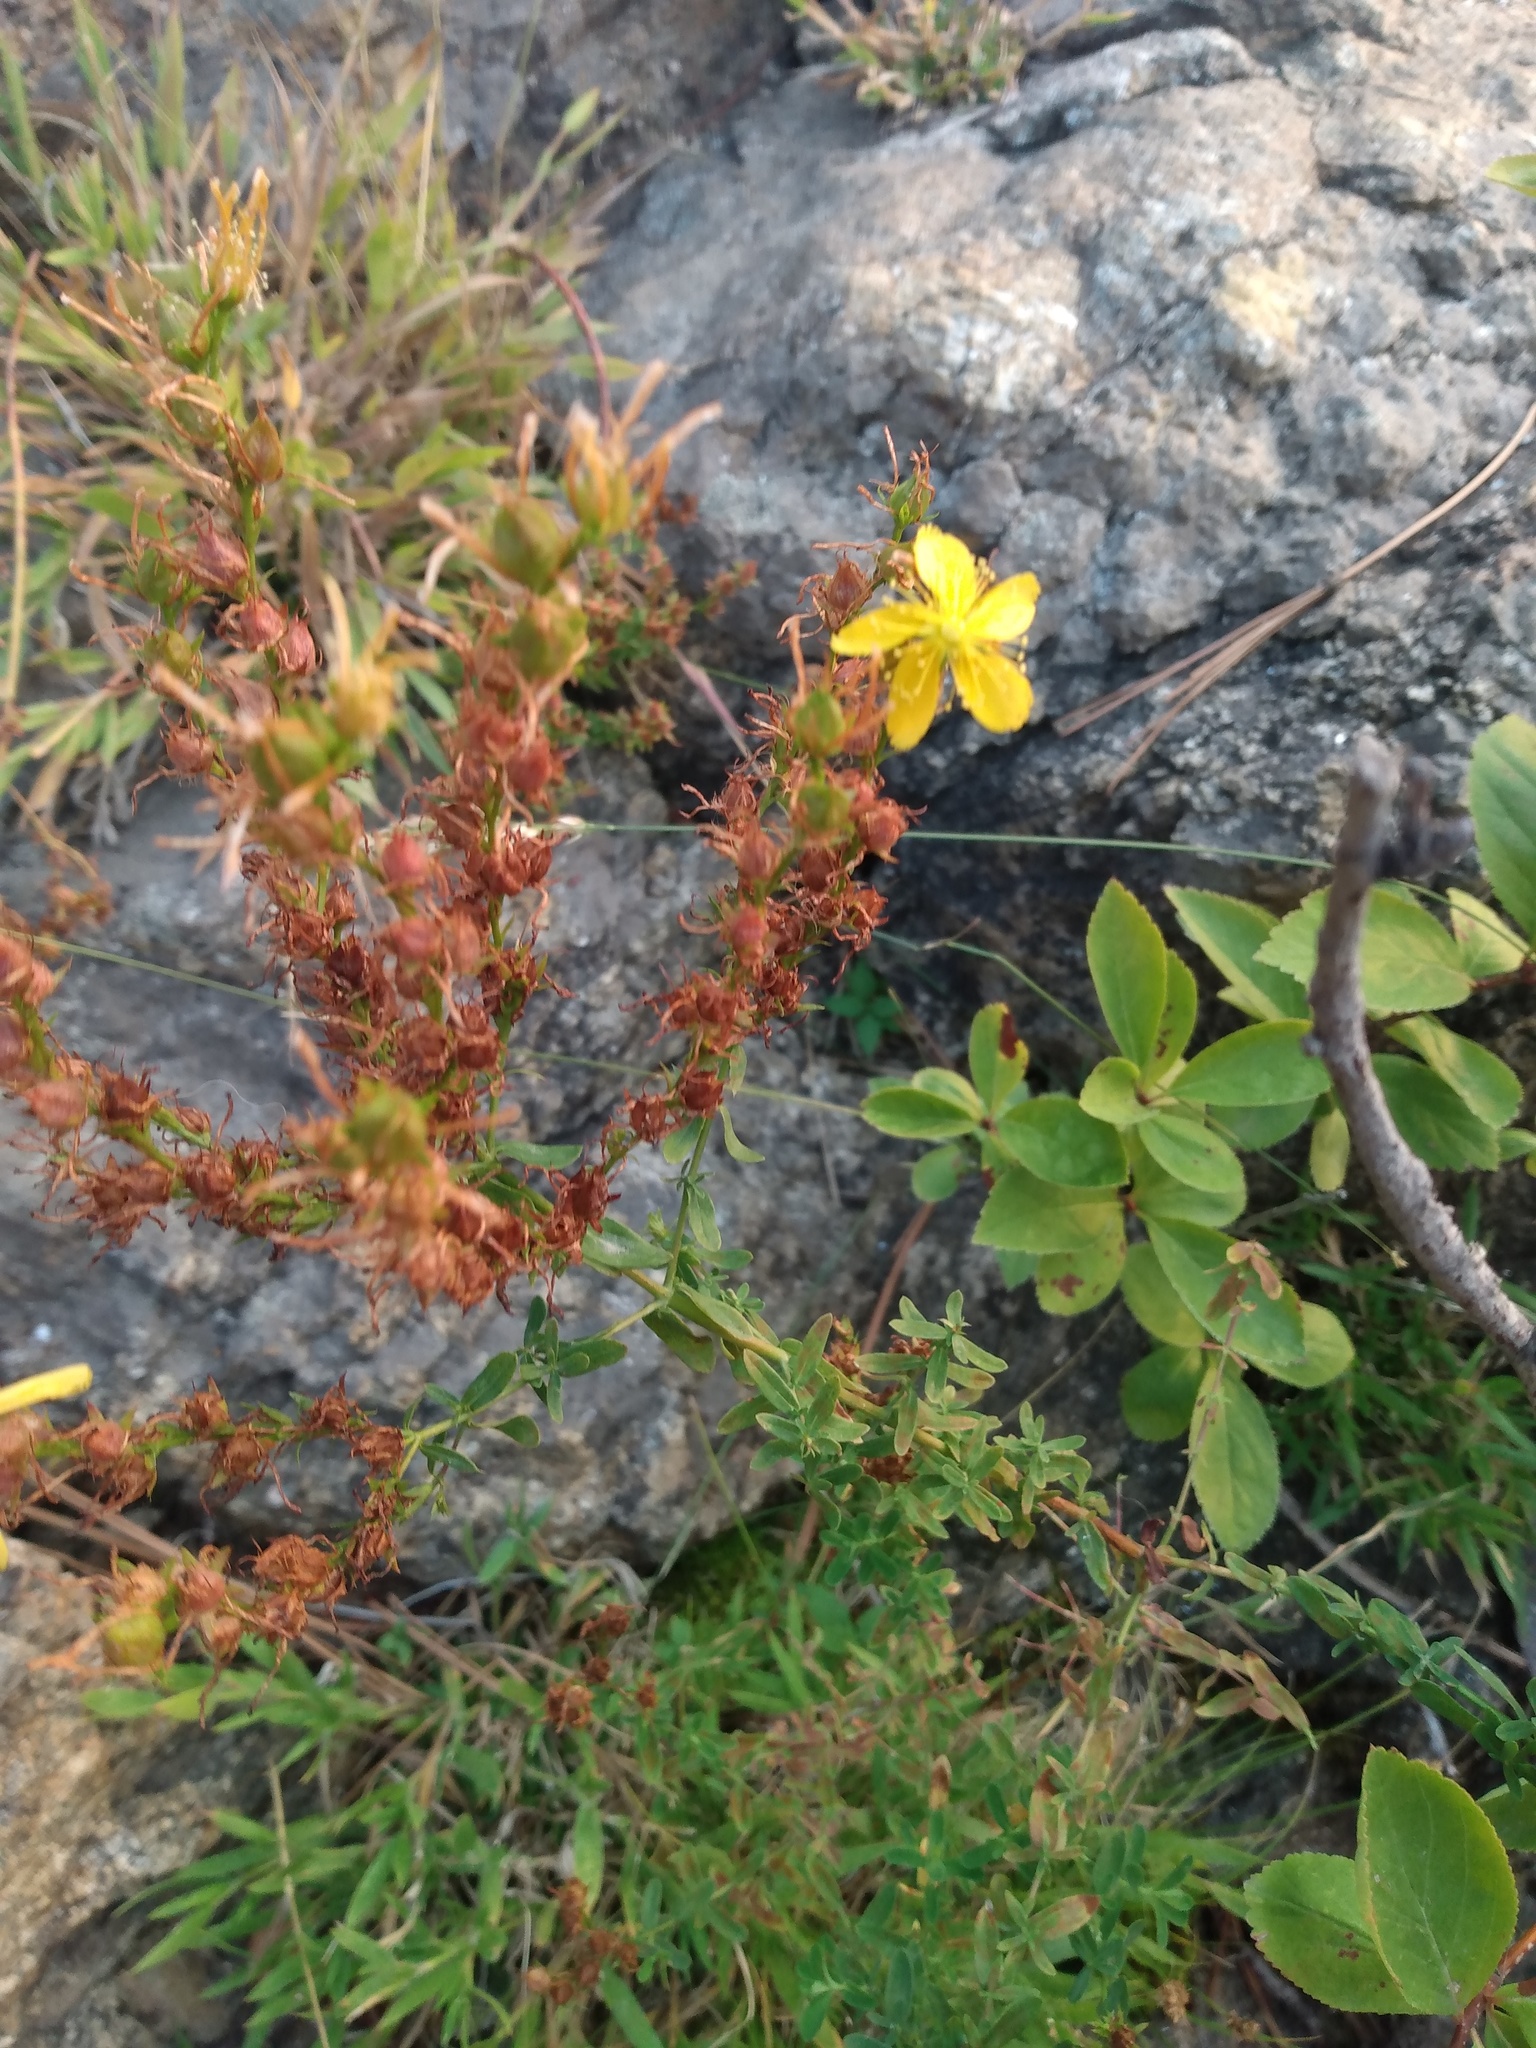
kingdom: Plantae
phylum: Tracheophyta
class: Magnoliopsida
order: Malpighiales
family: Hypericaceae
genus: Hypericum
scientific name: Hypericum perforatum
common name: Common st. johnswort
